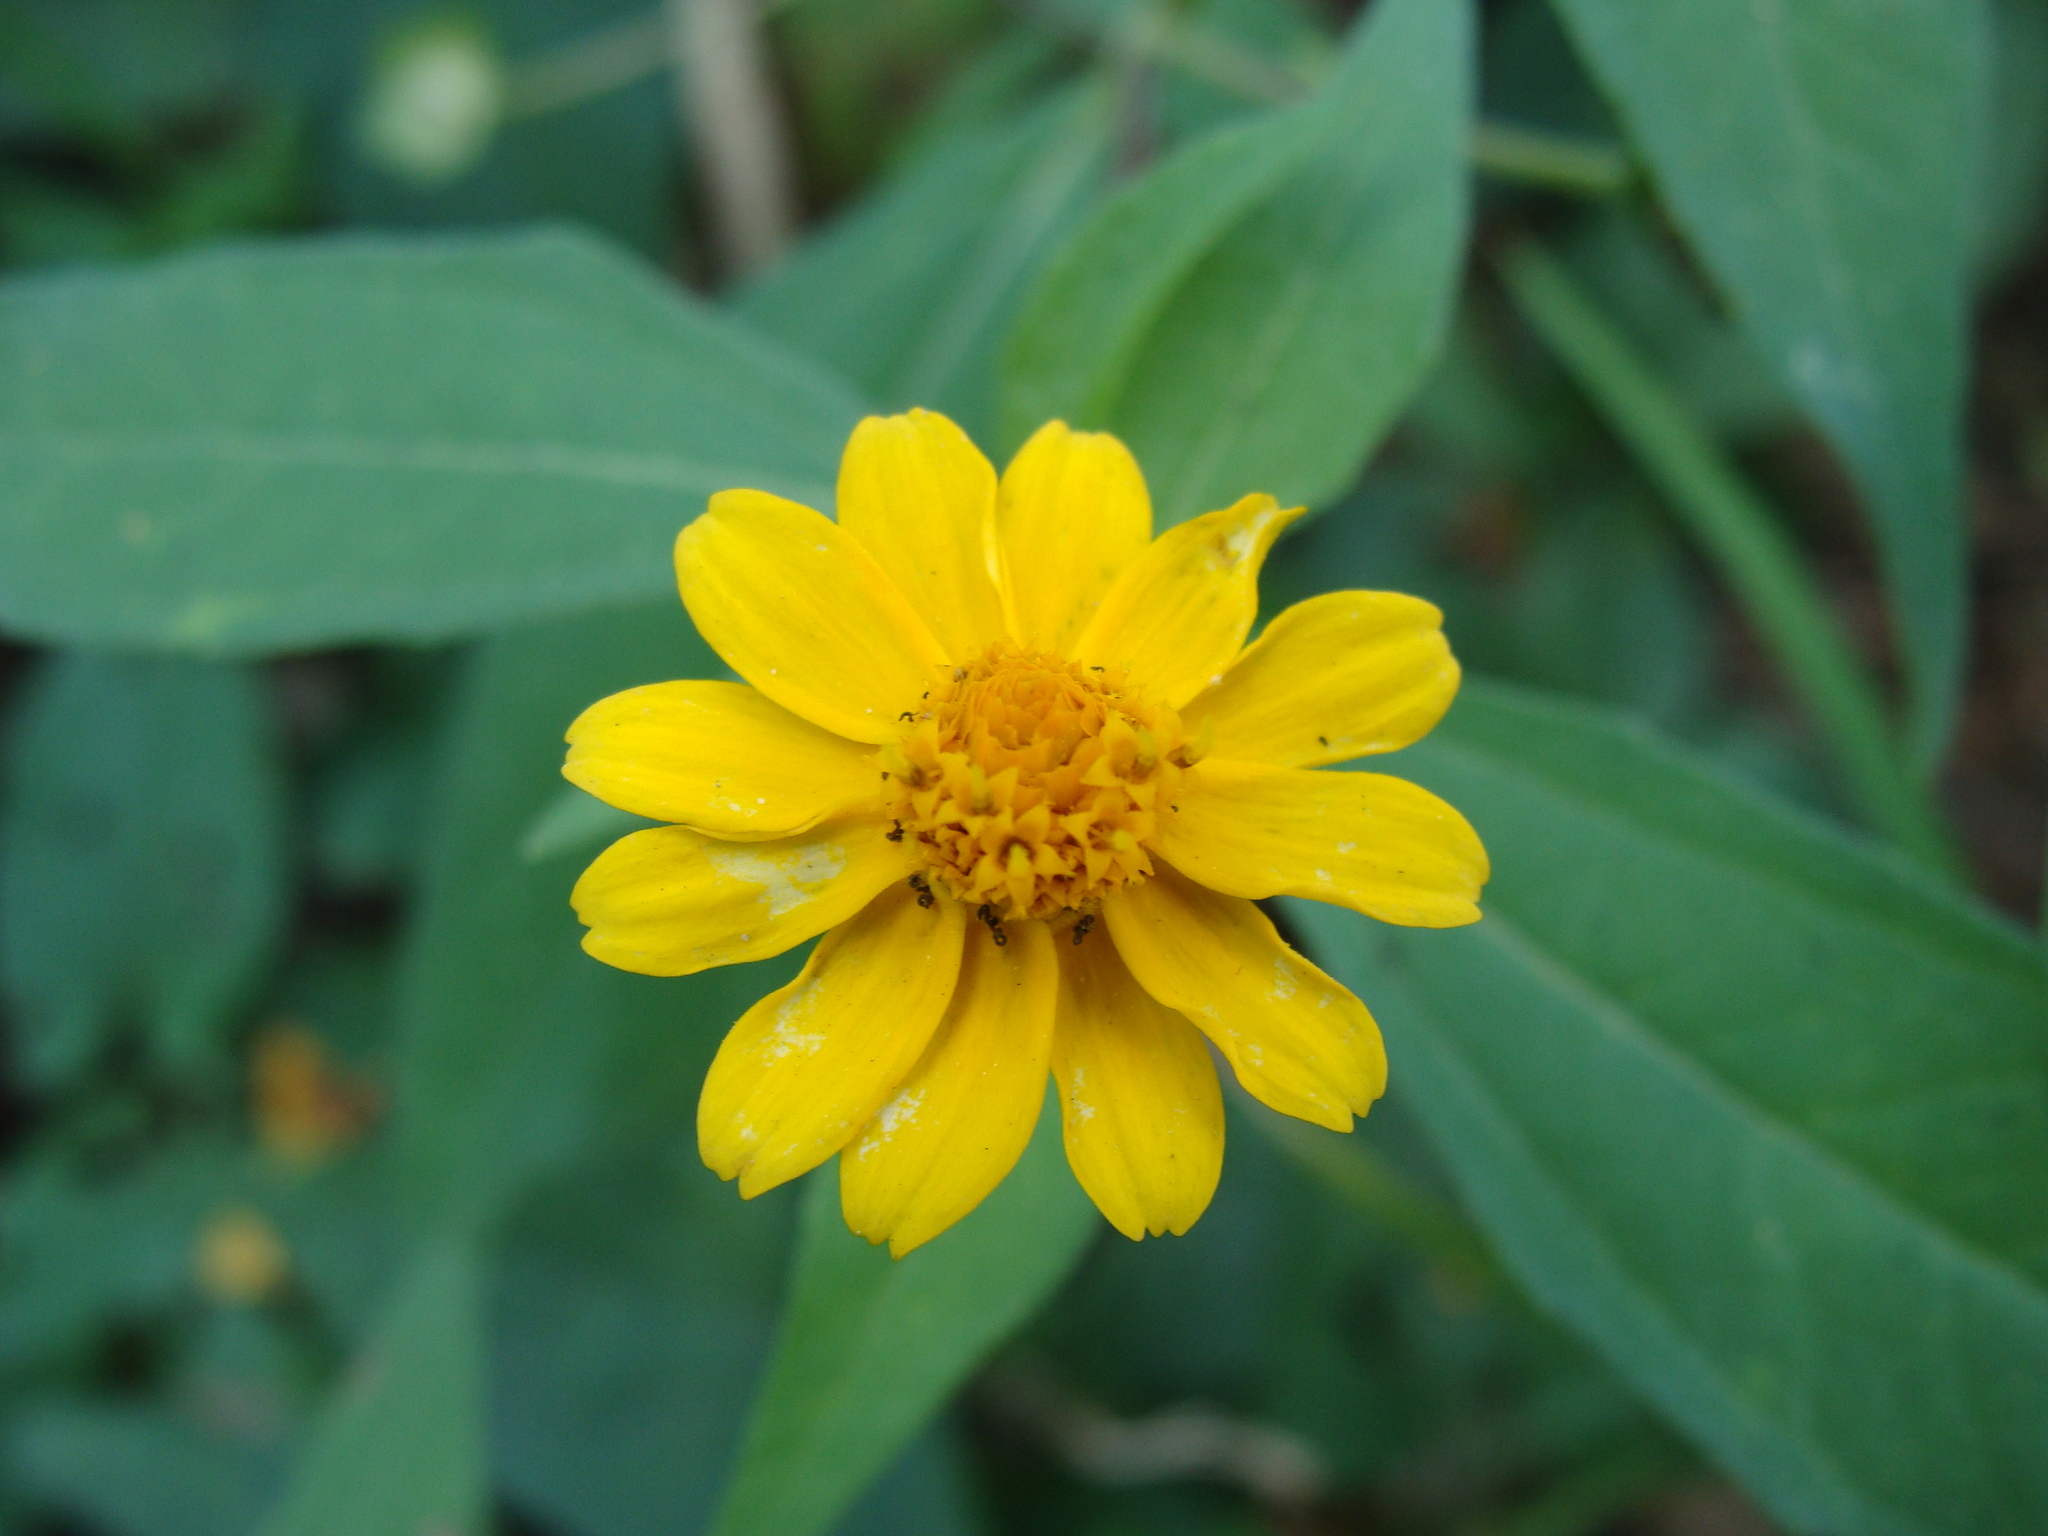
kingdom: Plantae
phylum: Tracheophyta
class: Magnoliopsida
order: Asterales
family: Asteraceae
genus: Melampodium
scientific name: Melampodium divaricatum
